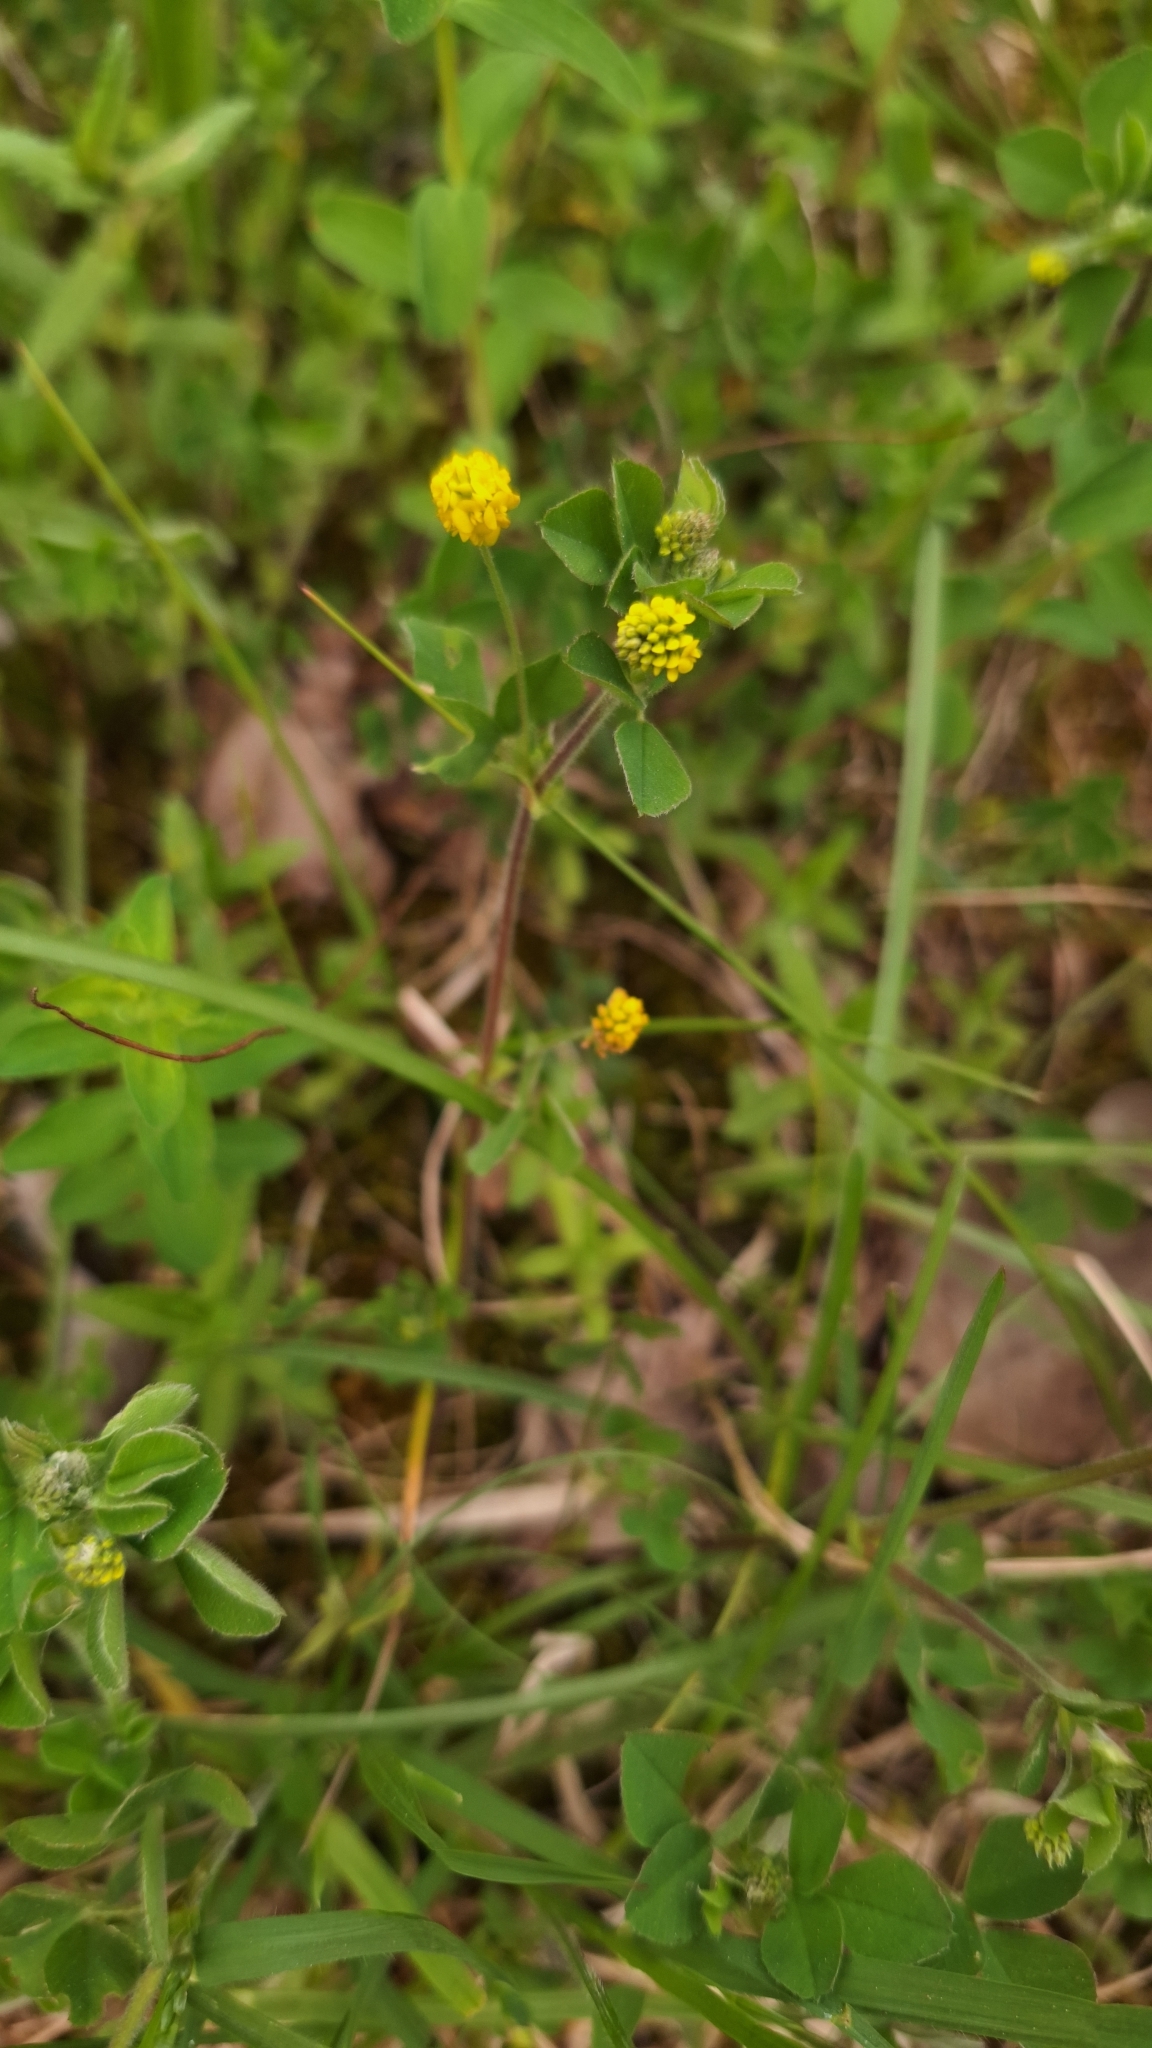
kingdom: Plantae
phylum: Tracheophyta
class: Magnoliopsida
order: Fabales
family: Fabaceae
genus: Medicago
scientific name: Medicago lupulina
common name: Black medick
